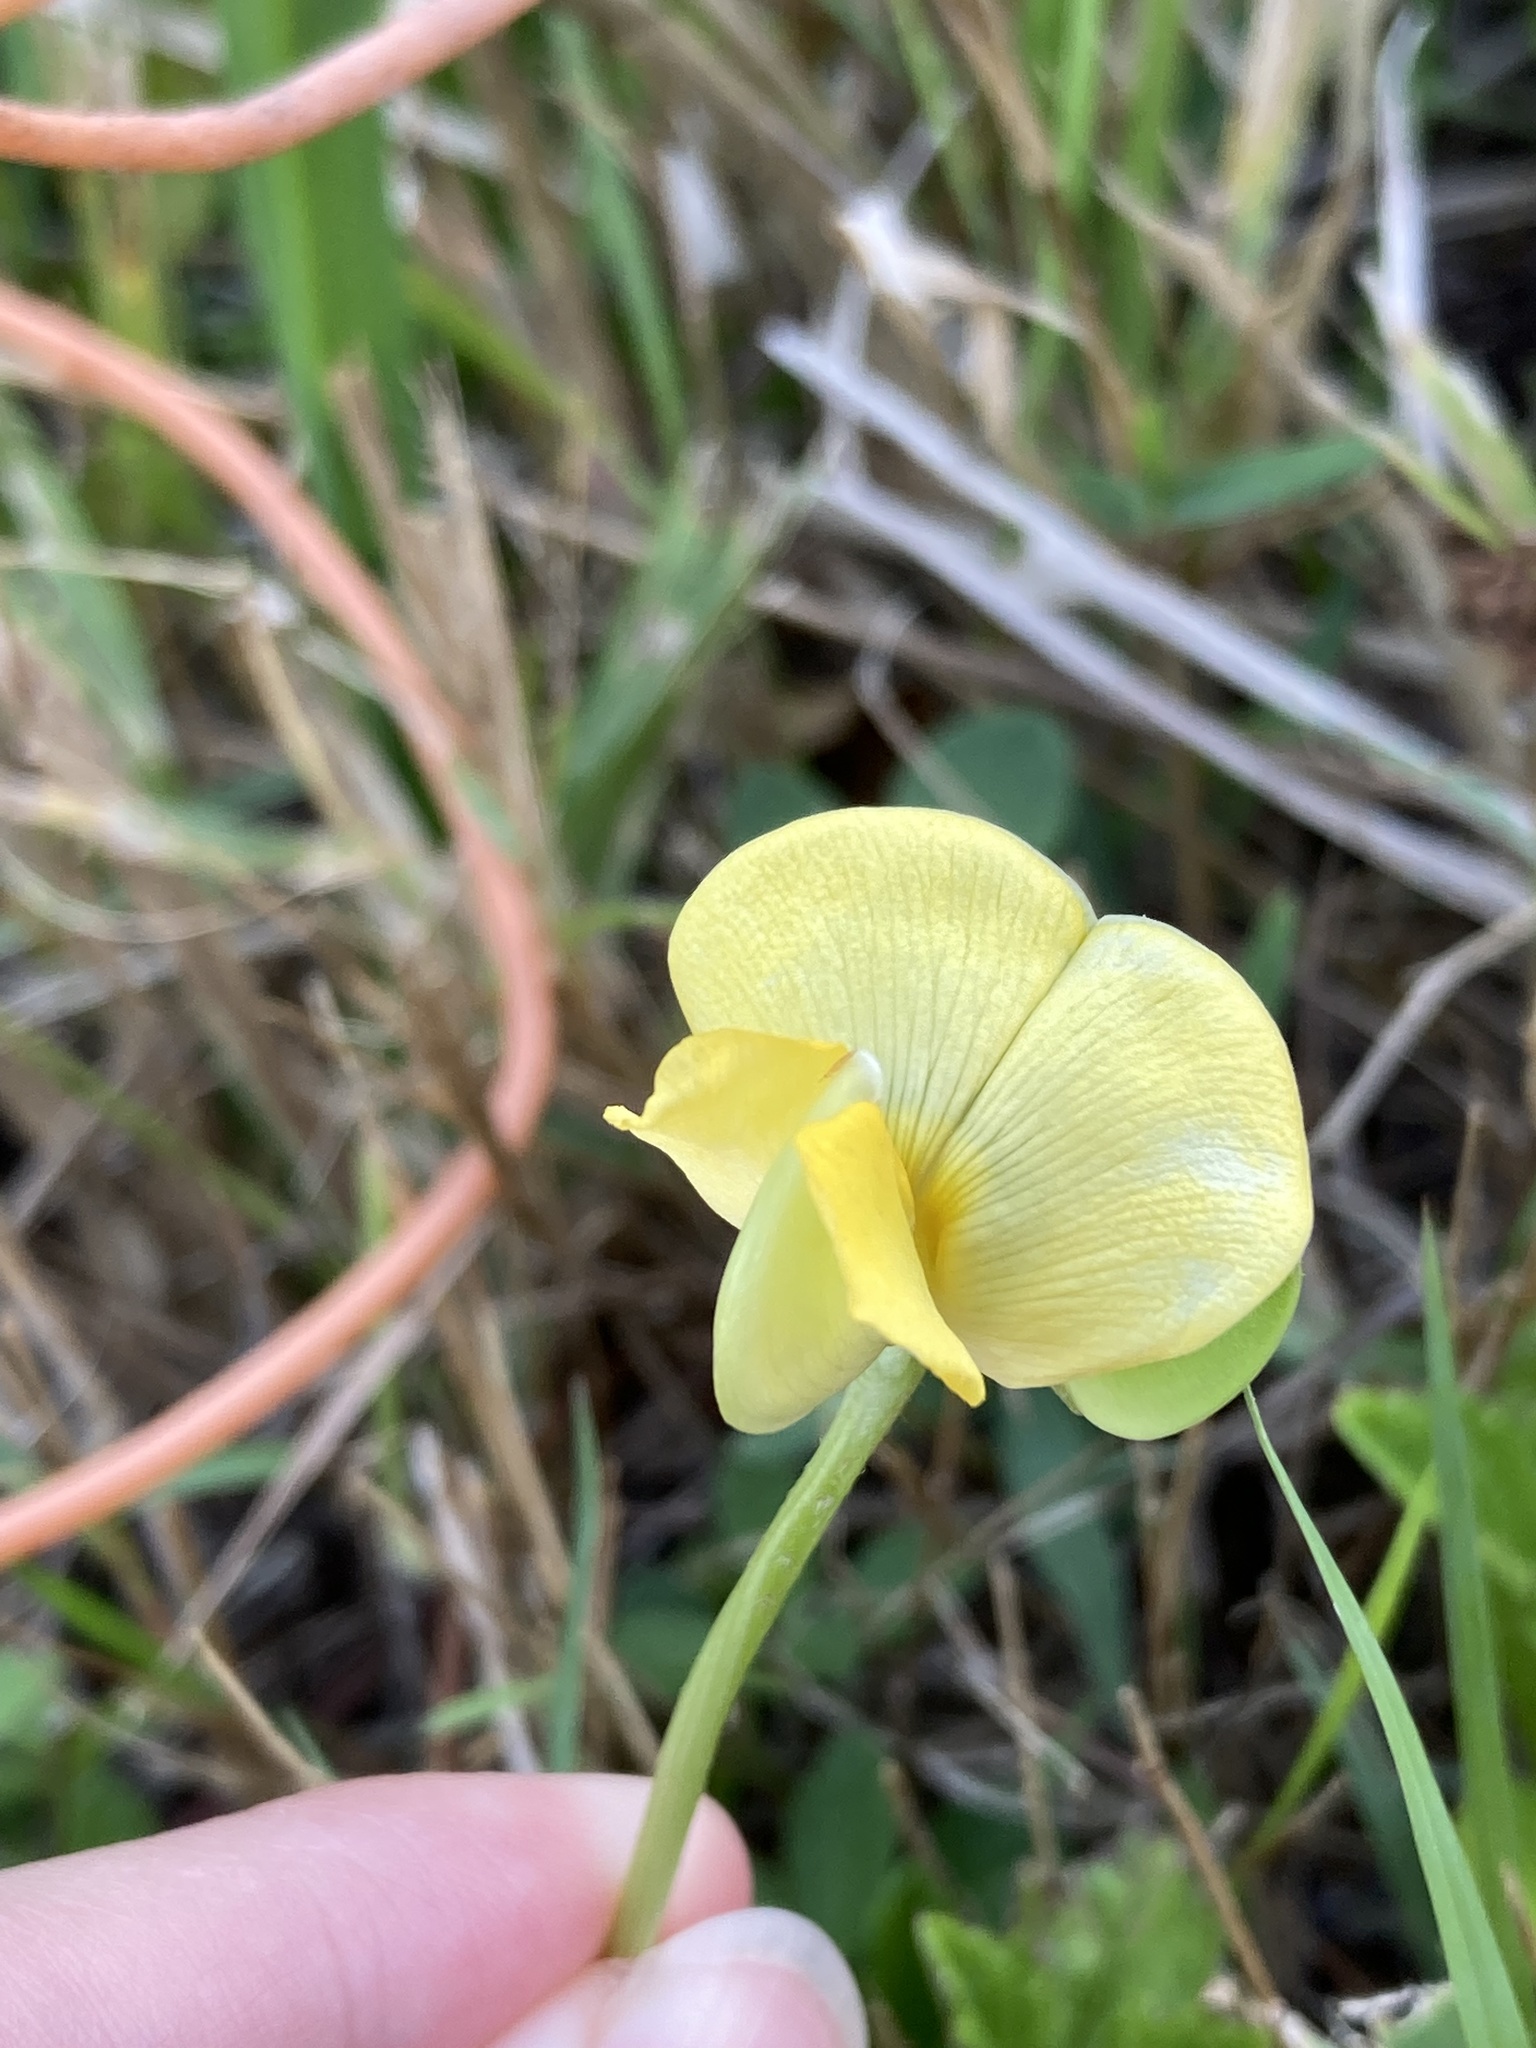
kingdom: Plantae
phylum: Tracheophyta
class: Magnoliopsida
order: Fabales
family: Fabaceae
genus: Vigna
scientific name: Vigna luteola
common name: Hairypod cowpea
